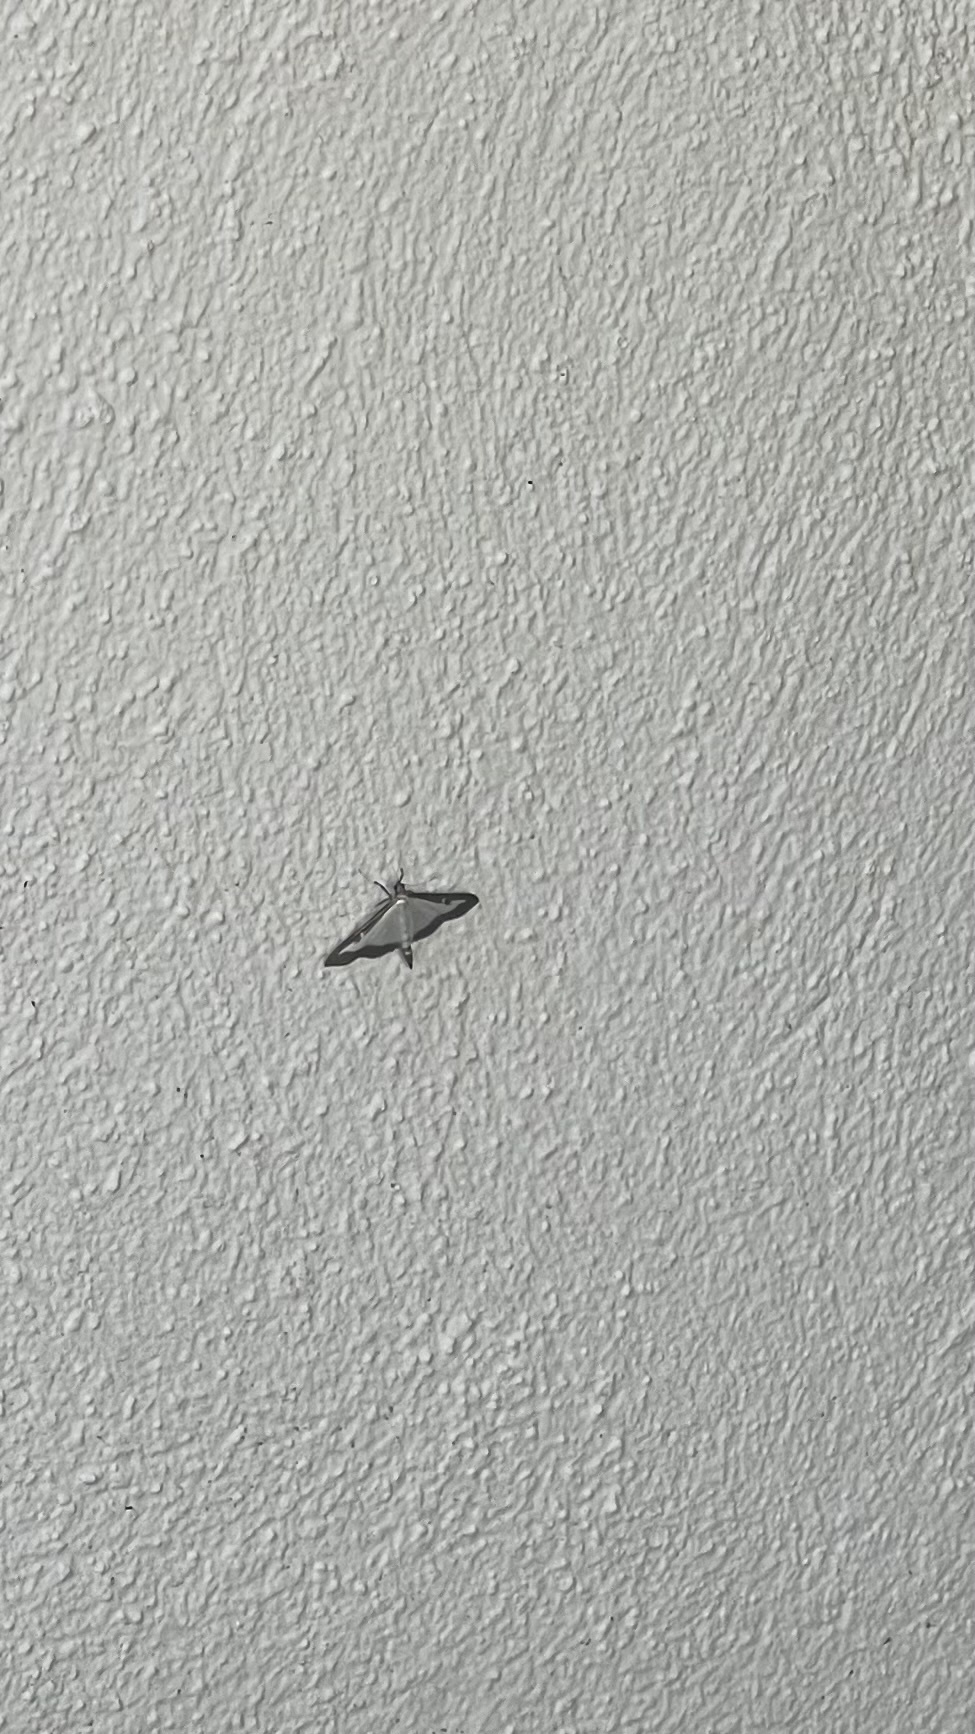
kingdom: Animalia
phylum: Arthropoda
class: Insecta
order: Lepidoptera
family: Crambidae
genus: Cydalima
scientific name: Cydalima perspectalis
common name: Box tree moth
